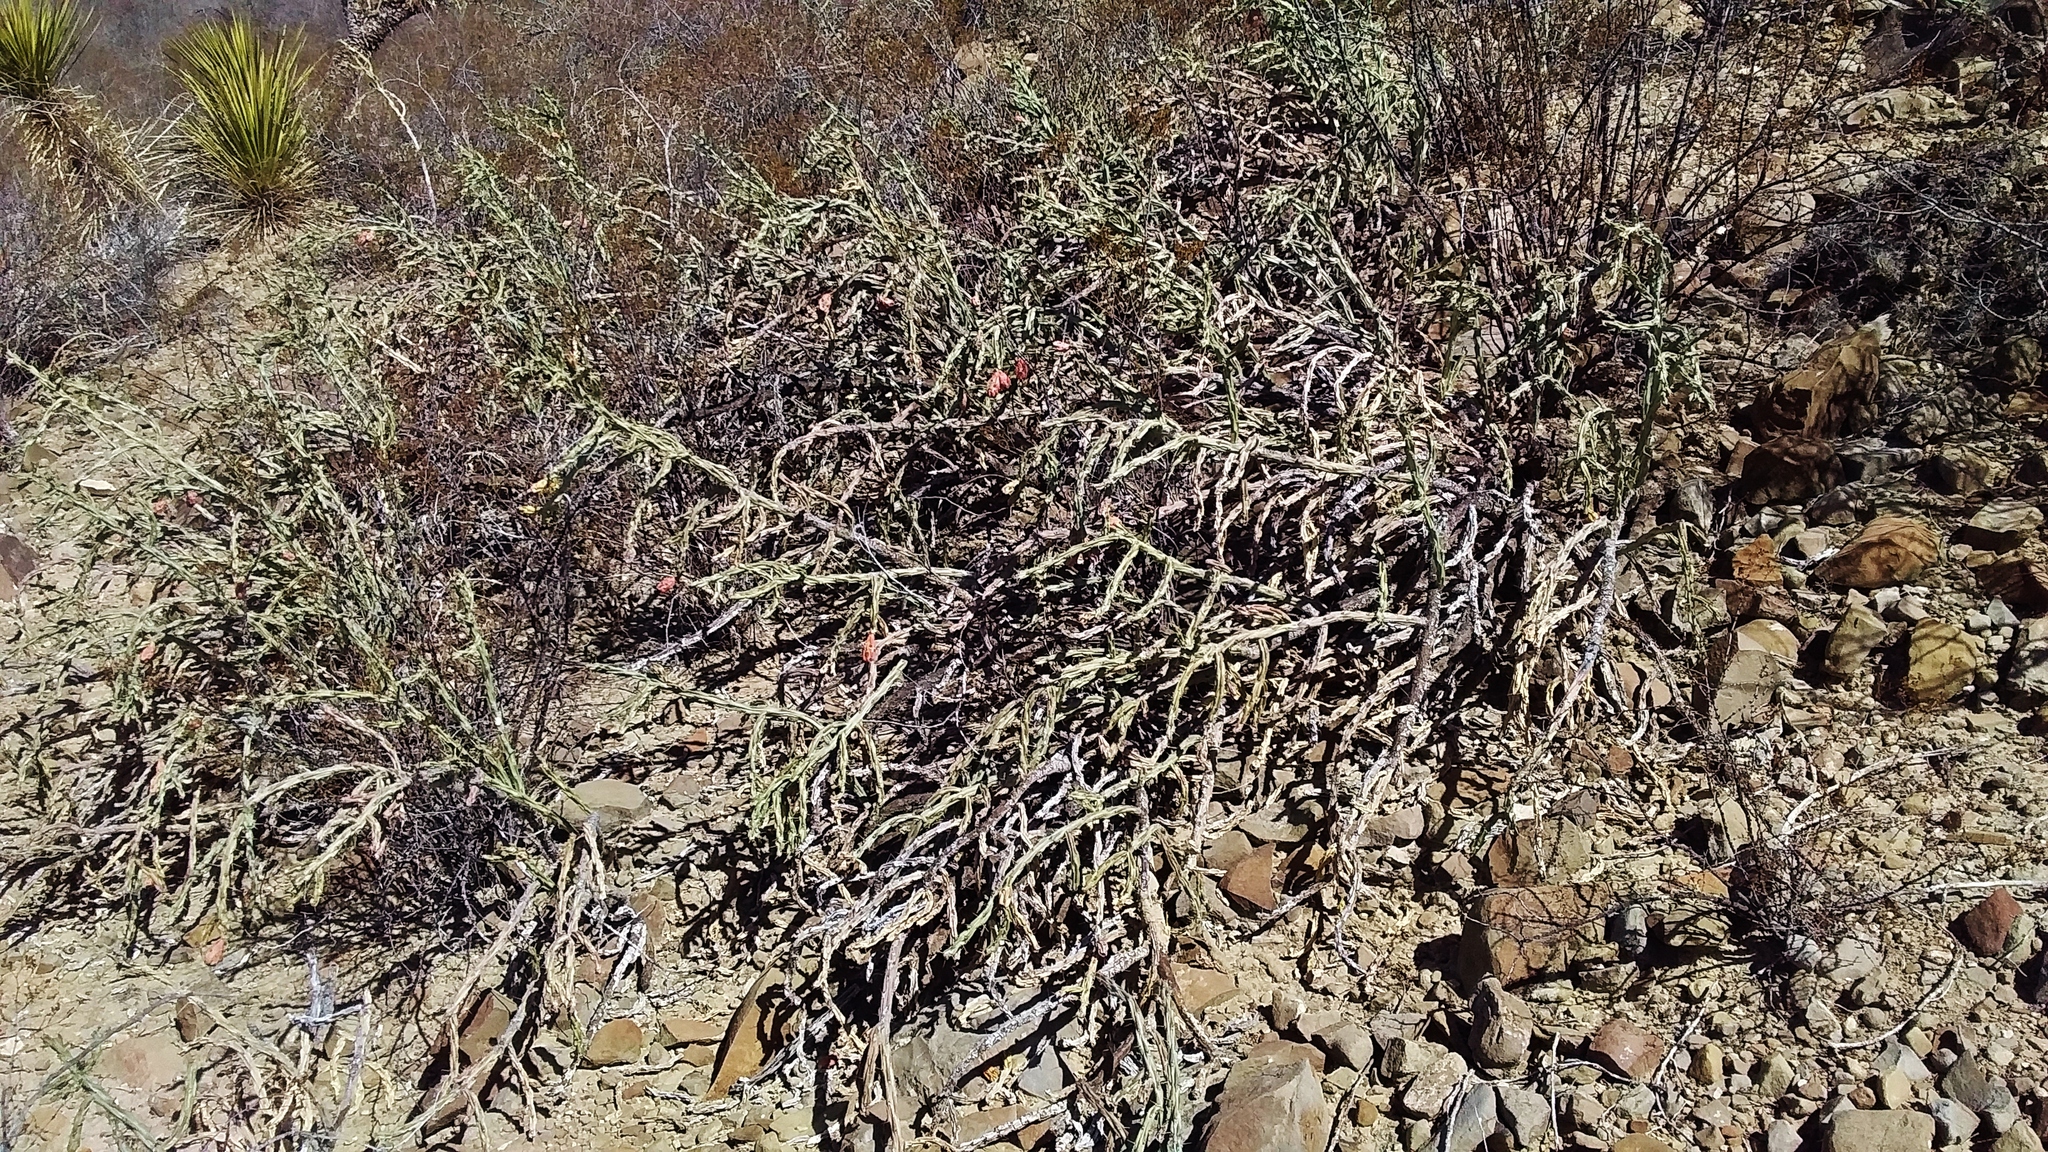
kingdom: Plantae
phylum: Tracheophyta
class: Magnoliopsida
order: Caryophyllales
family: Cactaceae
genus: Cylindropuntia
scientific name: Cylindropuntia leptocaulis
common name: Christmas cactus
